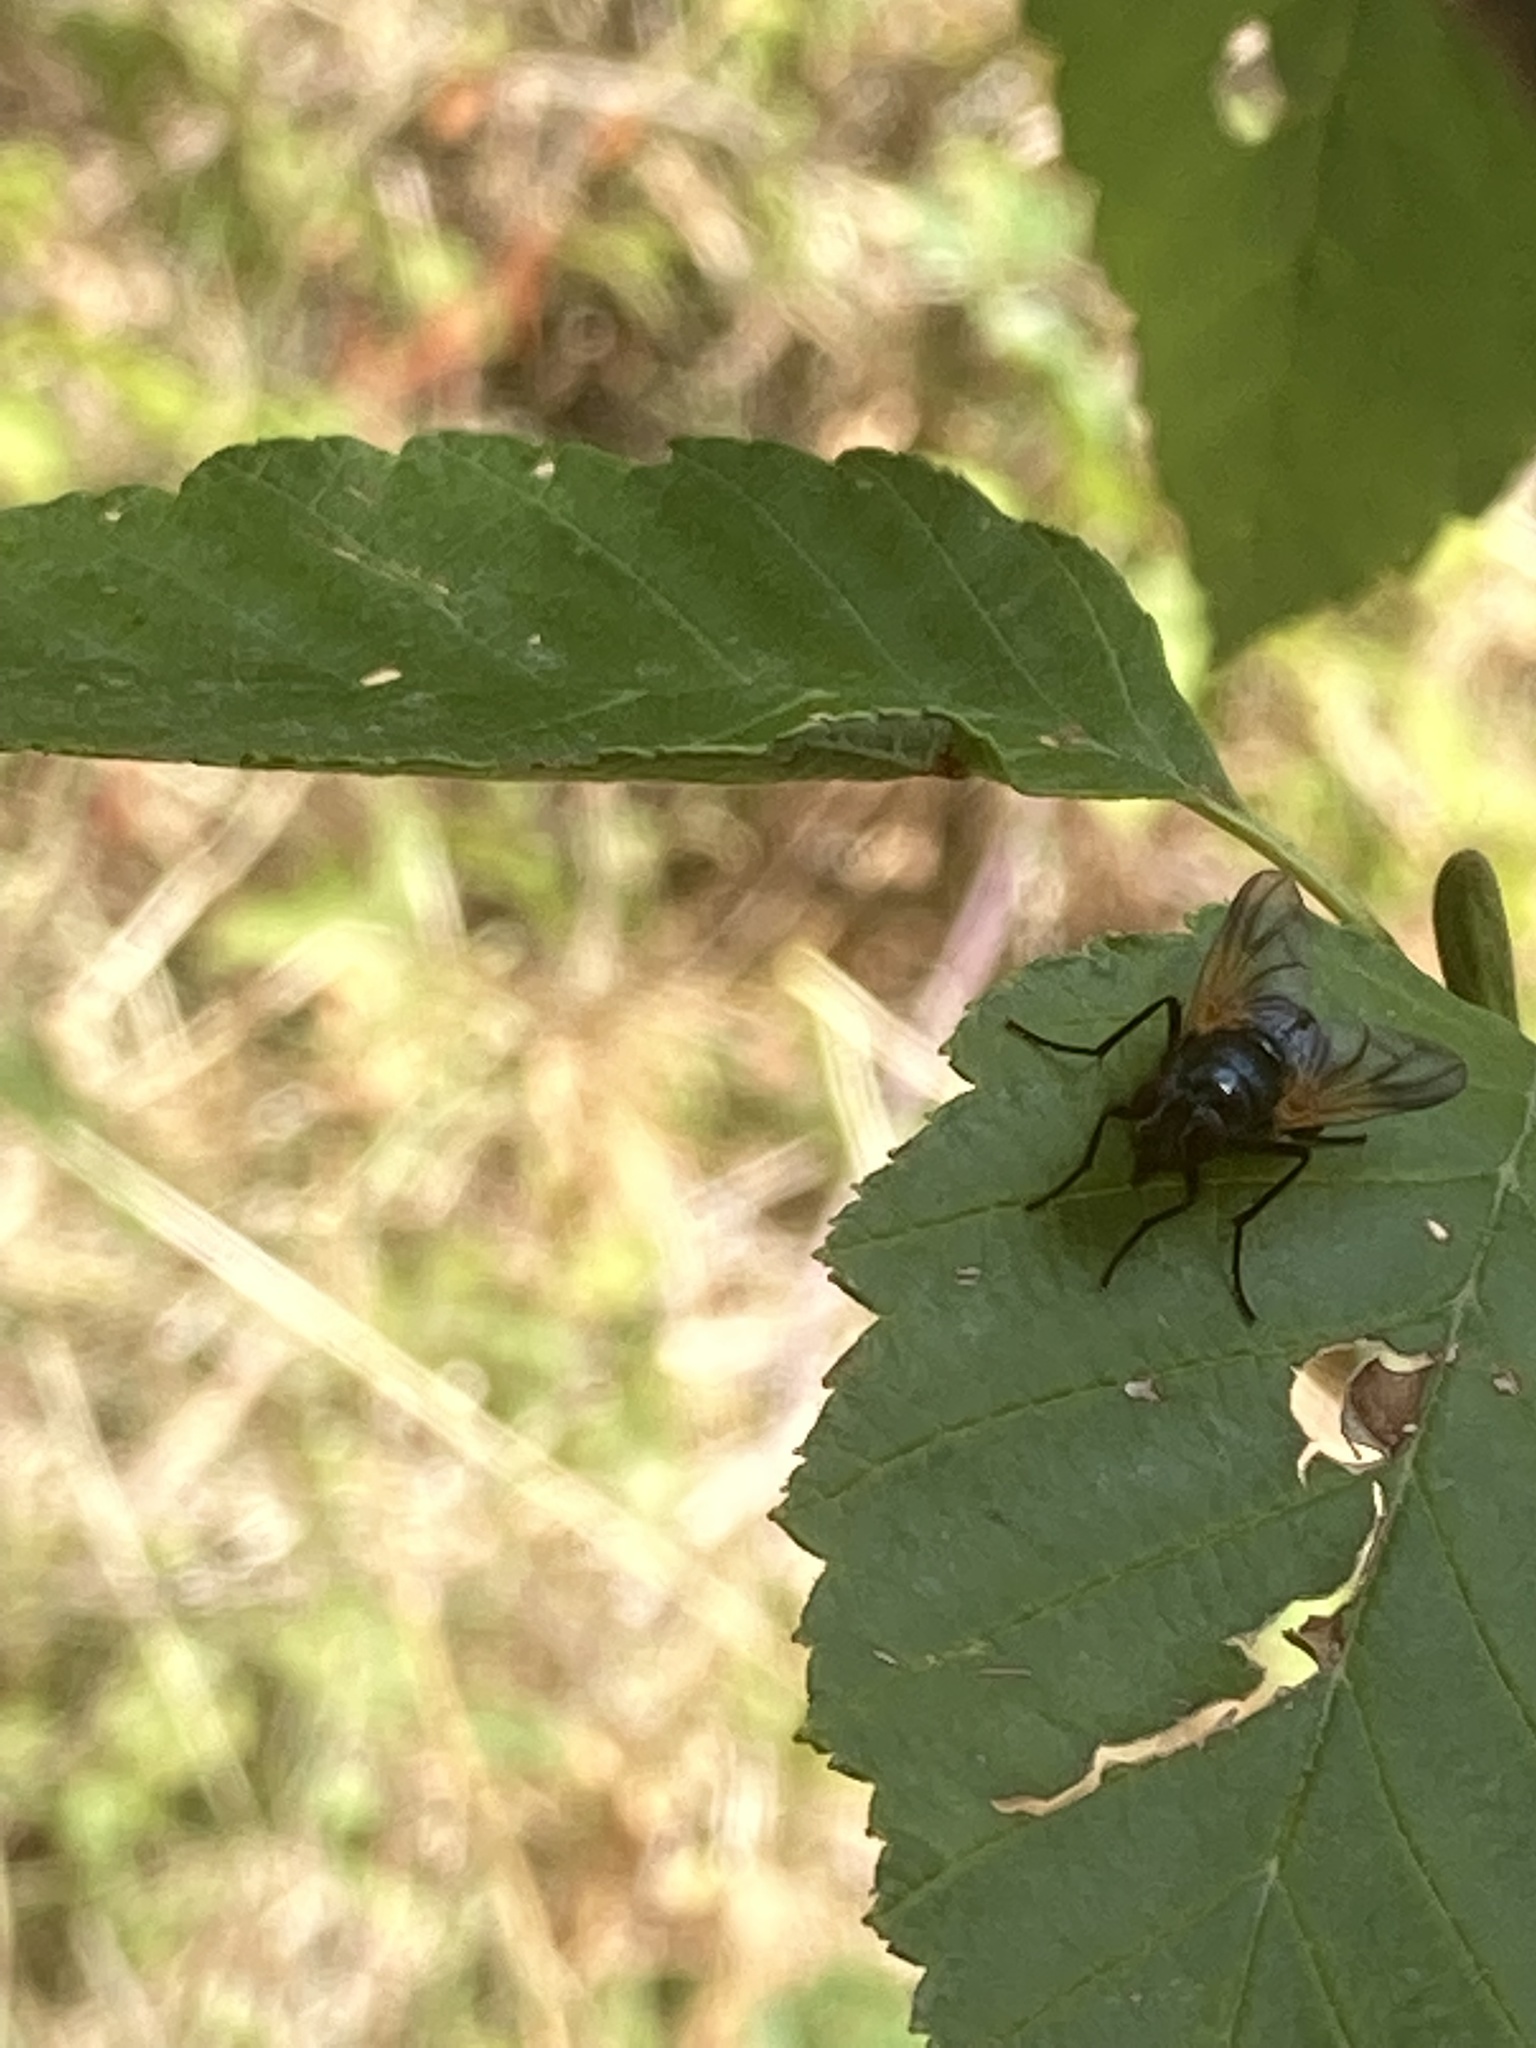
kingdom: Animalia
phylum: Arthropoda
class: Insecta
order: Diptera
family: Muscidae
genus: Mesembrina
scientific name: Mesembrina latreillii
